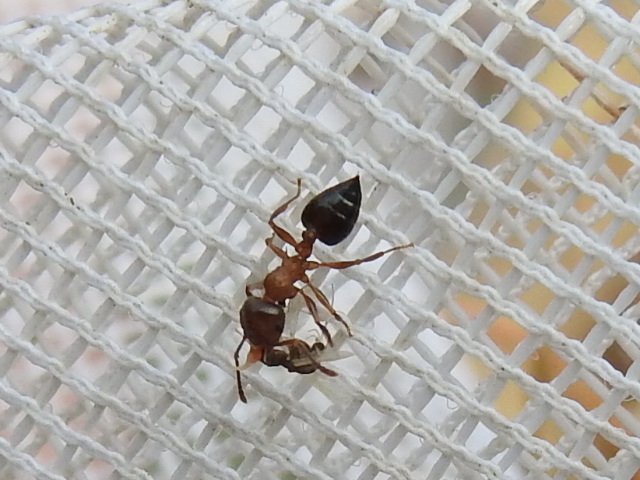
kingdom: Animalia
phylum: Arthropoda
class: Insecta
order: Hymenoptera
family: Formicidae
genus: Crematogaster
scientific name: Crematogaster laeviuscula
